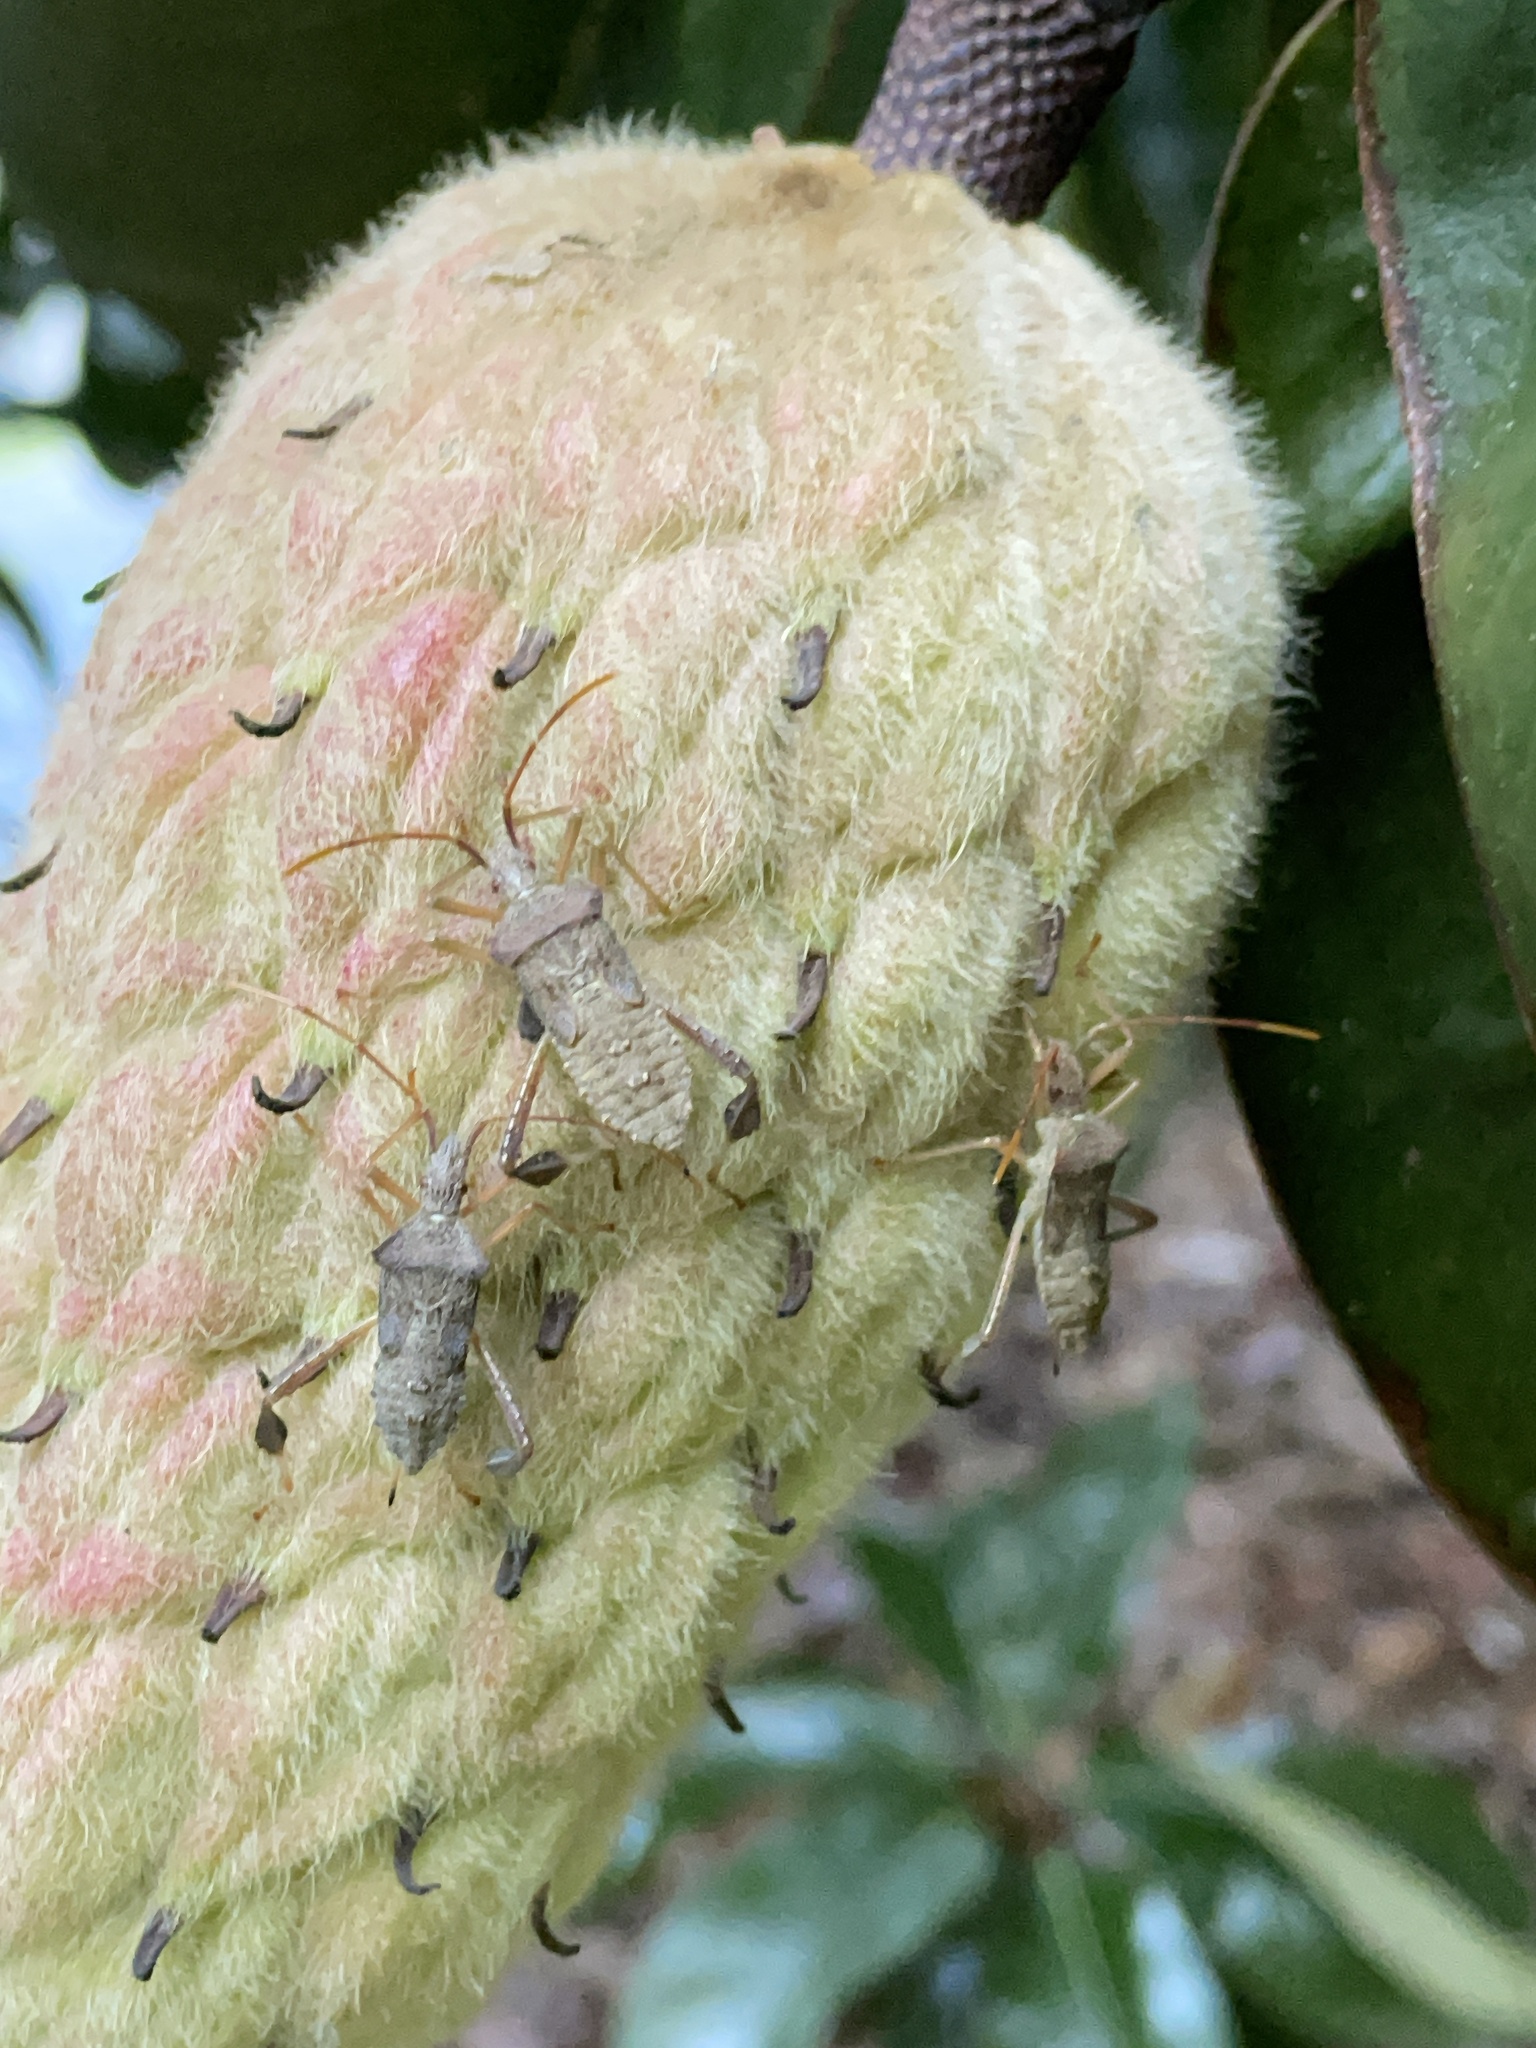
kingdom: Animalia
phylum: Arthropoda
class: Insecta
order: Hemiptera
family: Coreidae
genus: Leptoglossus
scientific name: Leptoglossus fulvicornis
